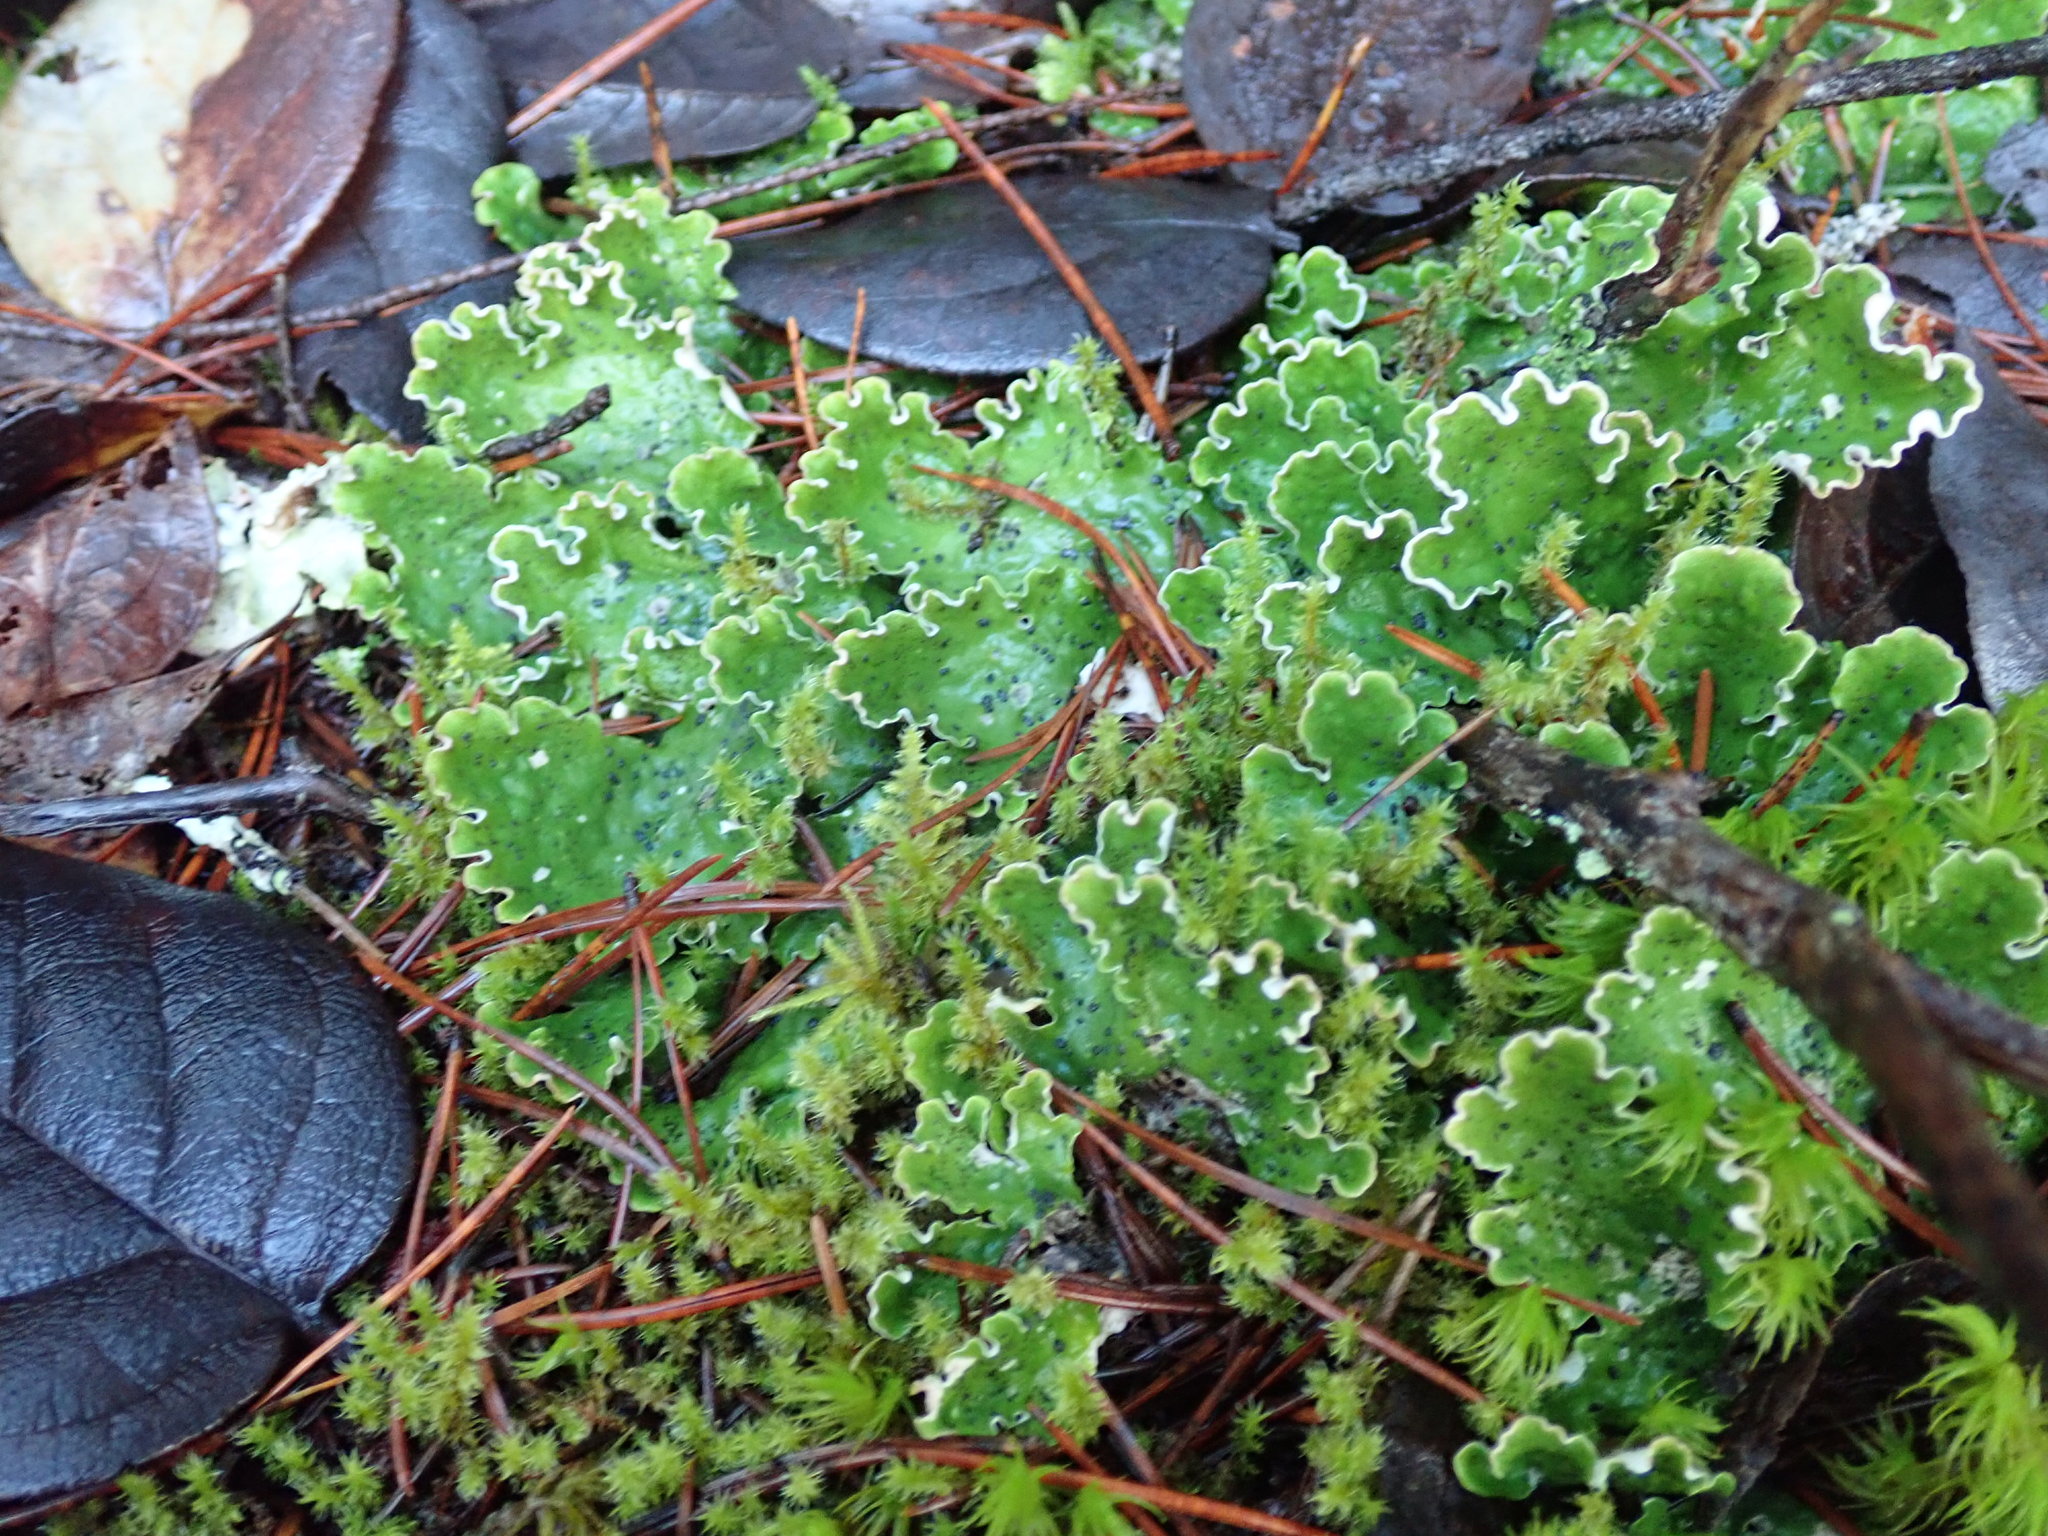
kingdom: Fungi
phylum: Ascomycota
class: Lecanoromycetes
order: Peltigerales
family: Peltigeraceae
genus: Peltigera
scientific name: Peltigera leucophlebia
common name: Ruffled freckle pelt lichen
